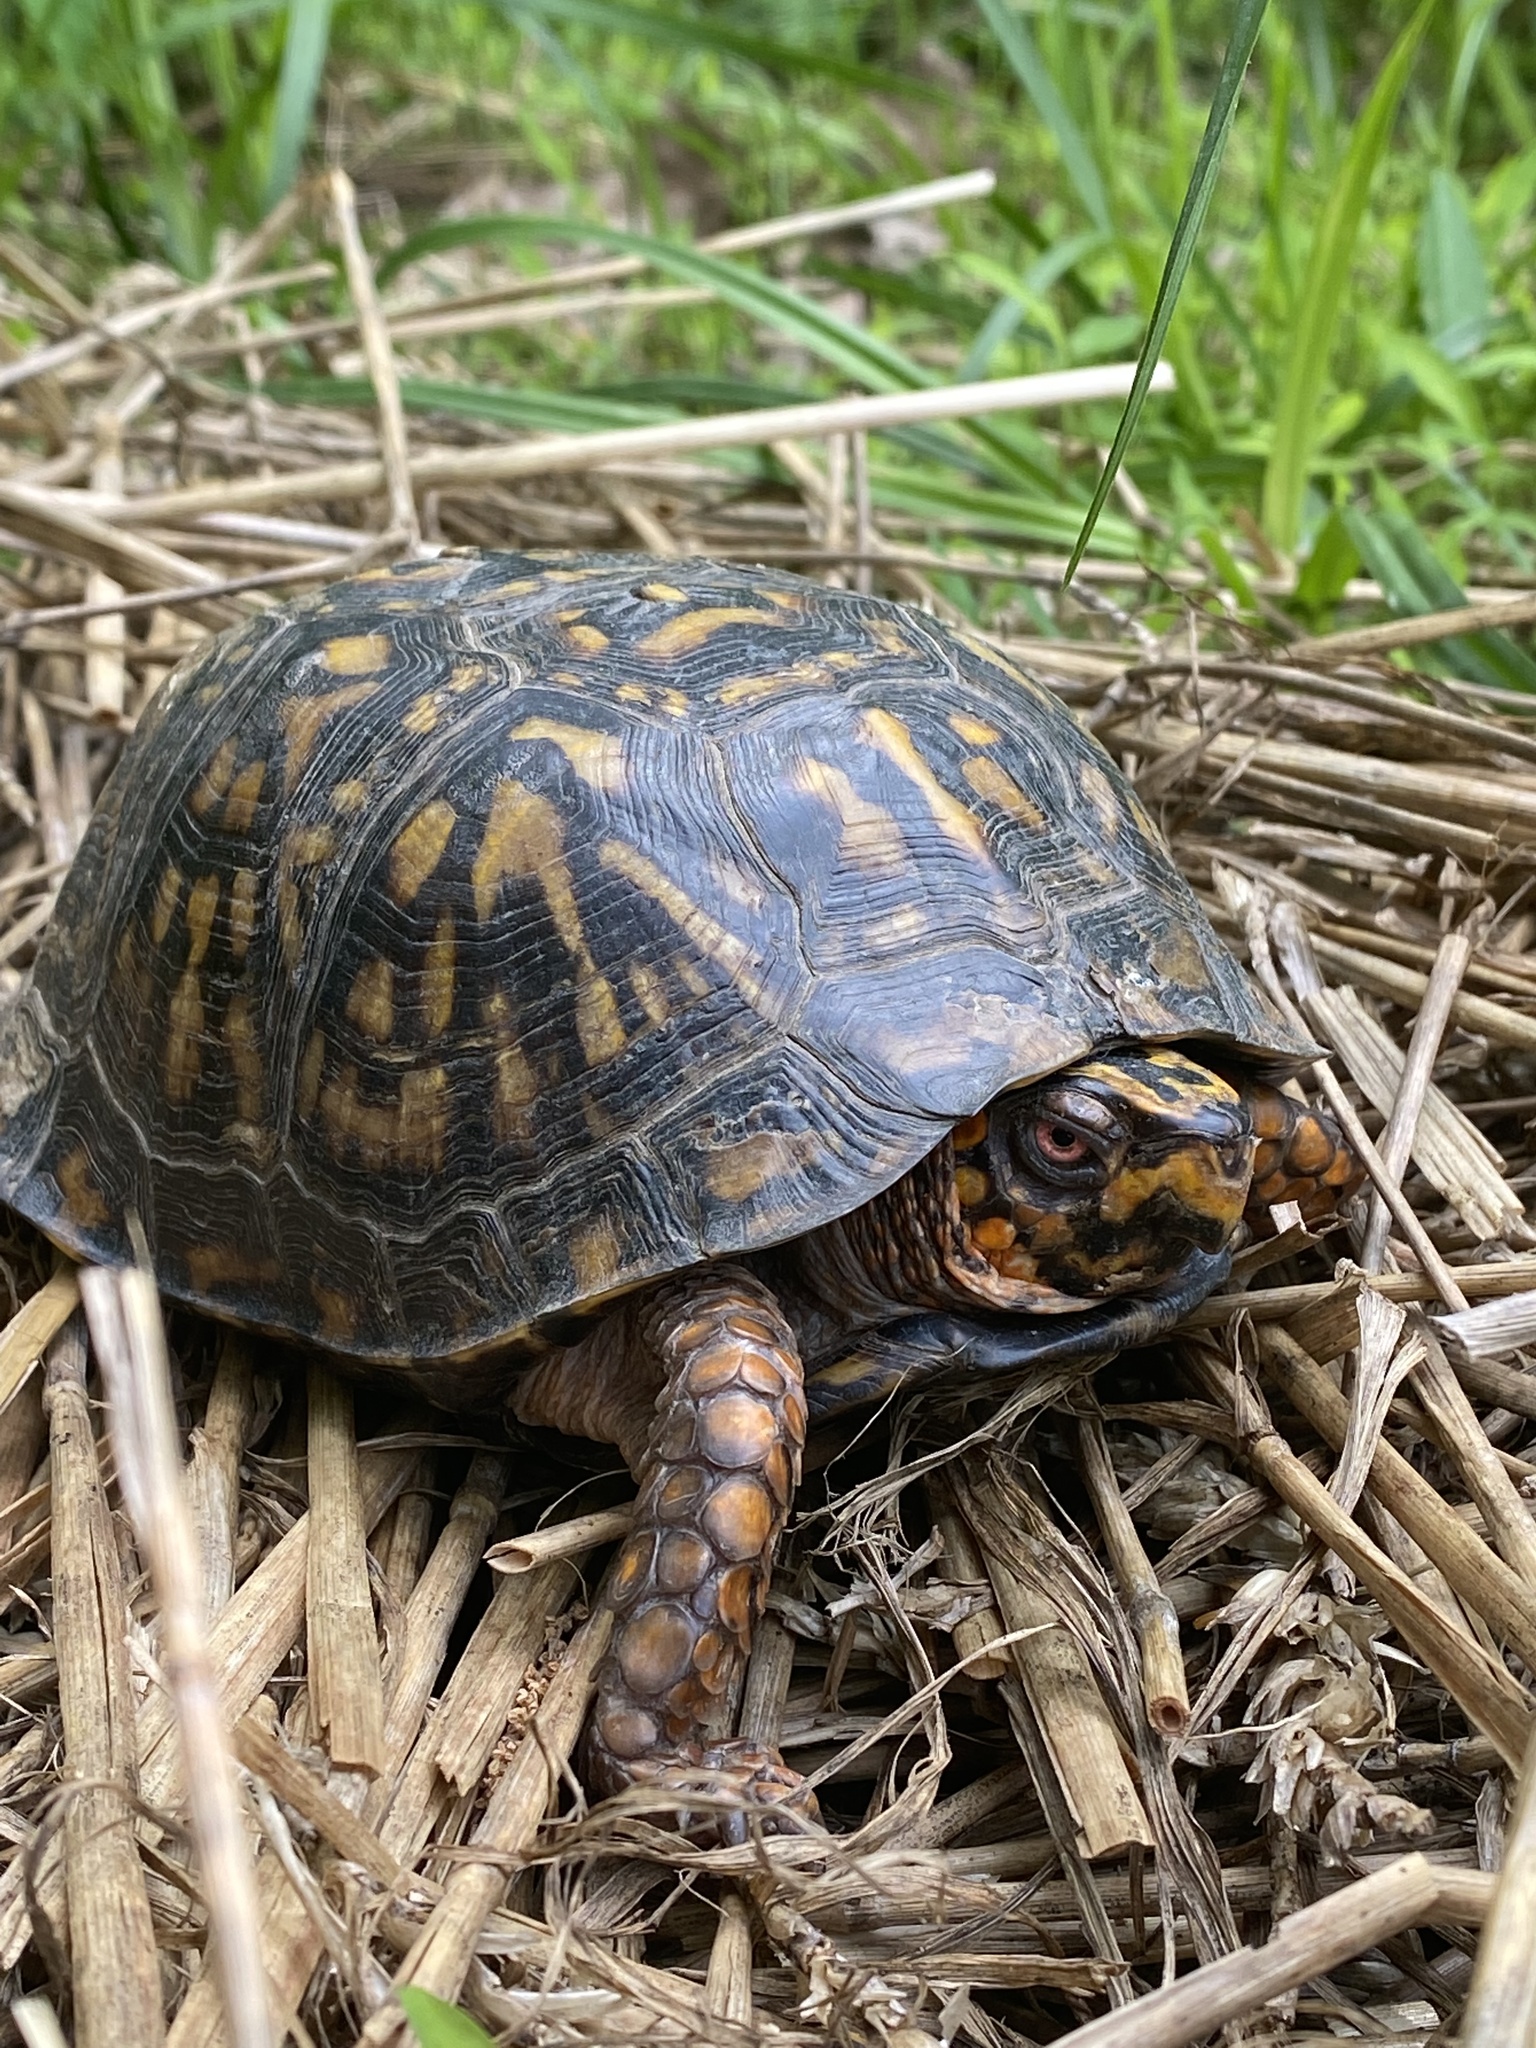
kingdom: Animalia
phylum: Chordata
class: Testudines
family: Emydidae
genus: Terrapene
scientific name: Terrapene carolina
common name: Common box turtle
